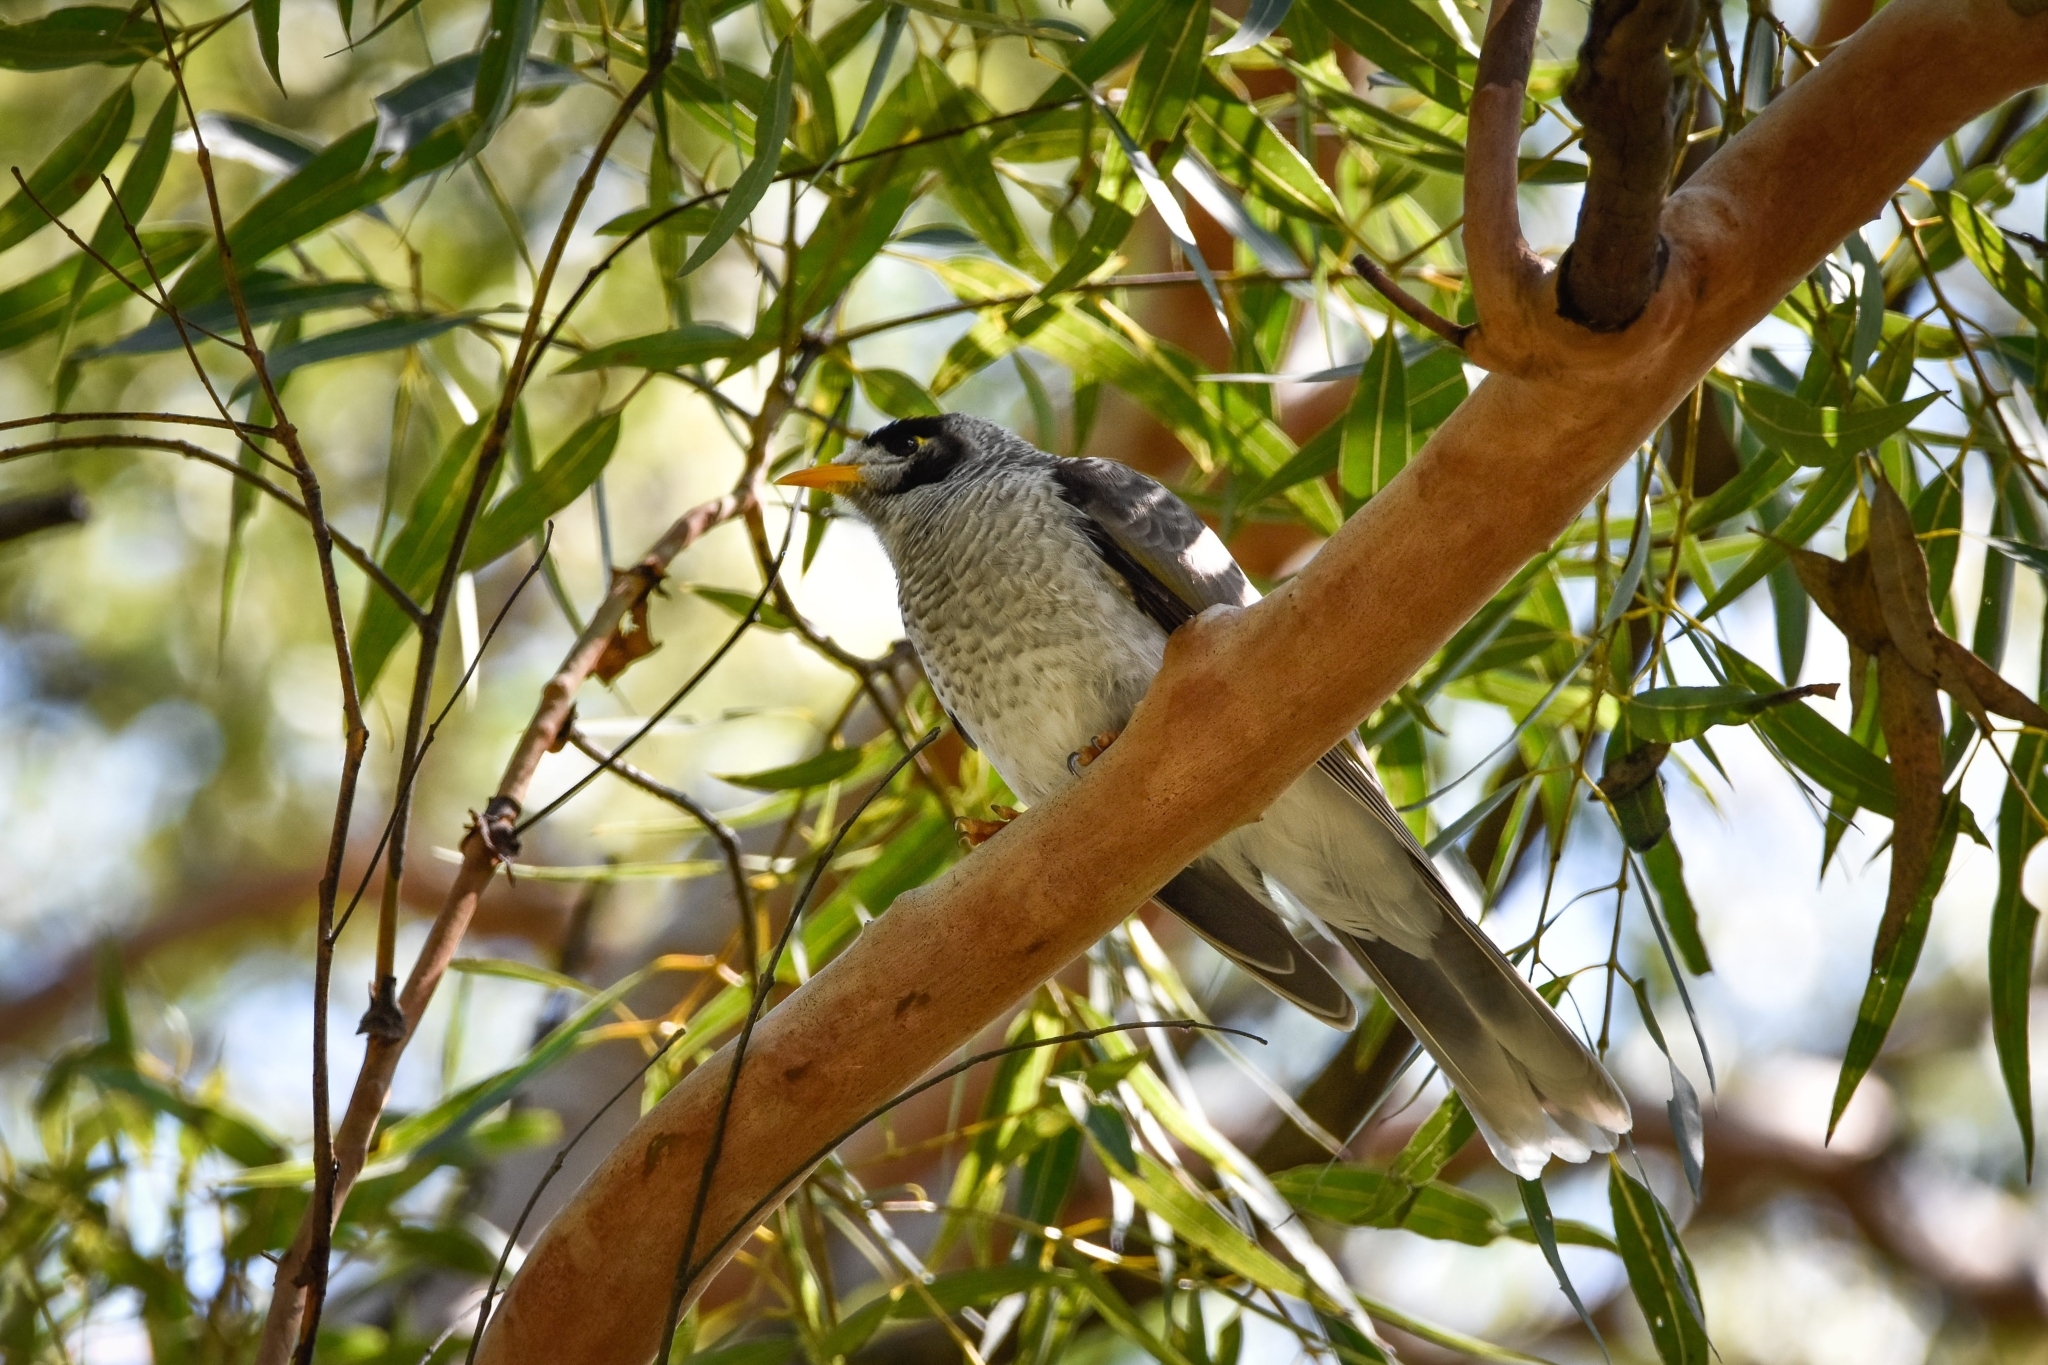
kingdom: Animalia
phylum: Chordata
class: Aves
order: Passeriformes
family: Meliphagidae
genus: Manorina
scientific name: Manorina melanocephala
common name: Noisy miner
